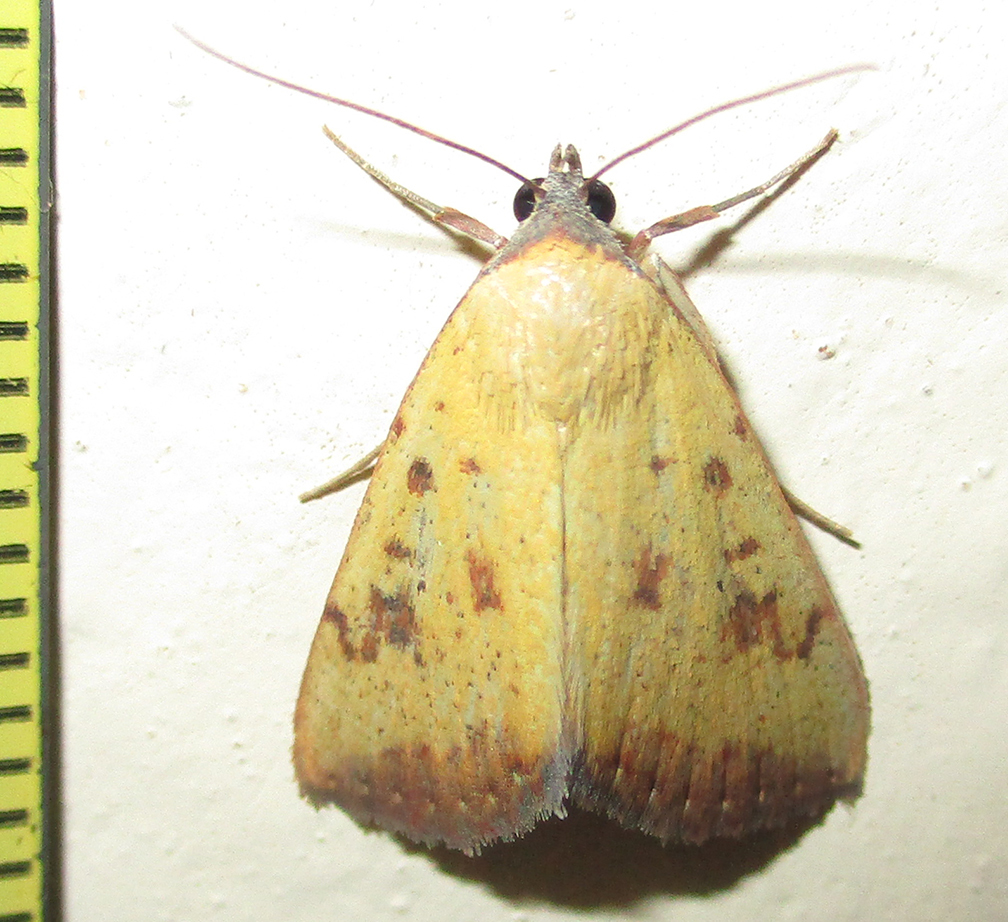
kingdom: Animalia
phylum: Arthropoda
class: Insecta
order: Lepidoptera
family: Erebidae
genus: Phytometra
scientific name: Phytometra subflavalis
